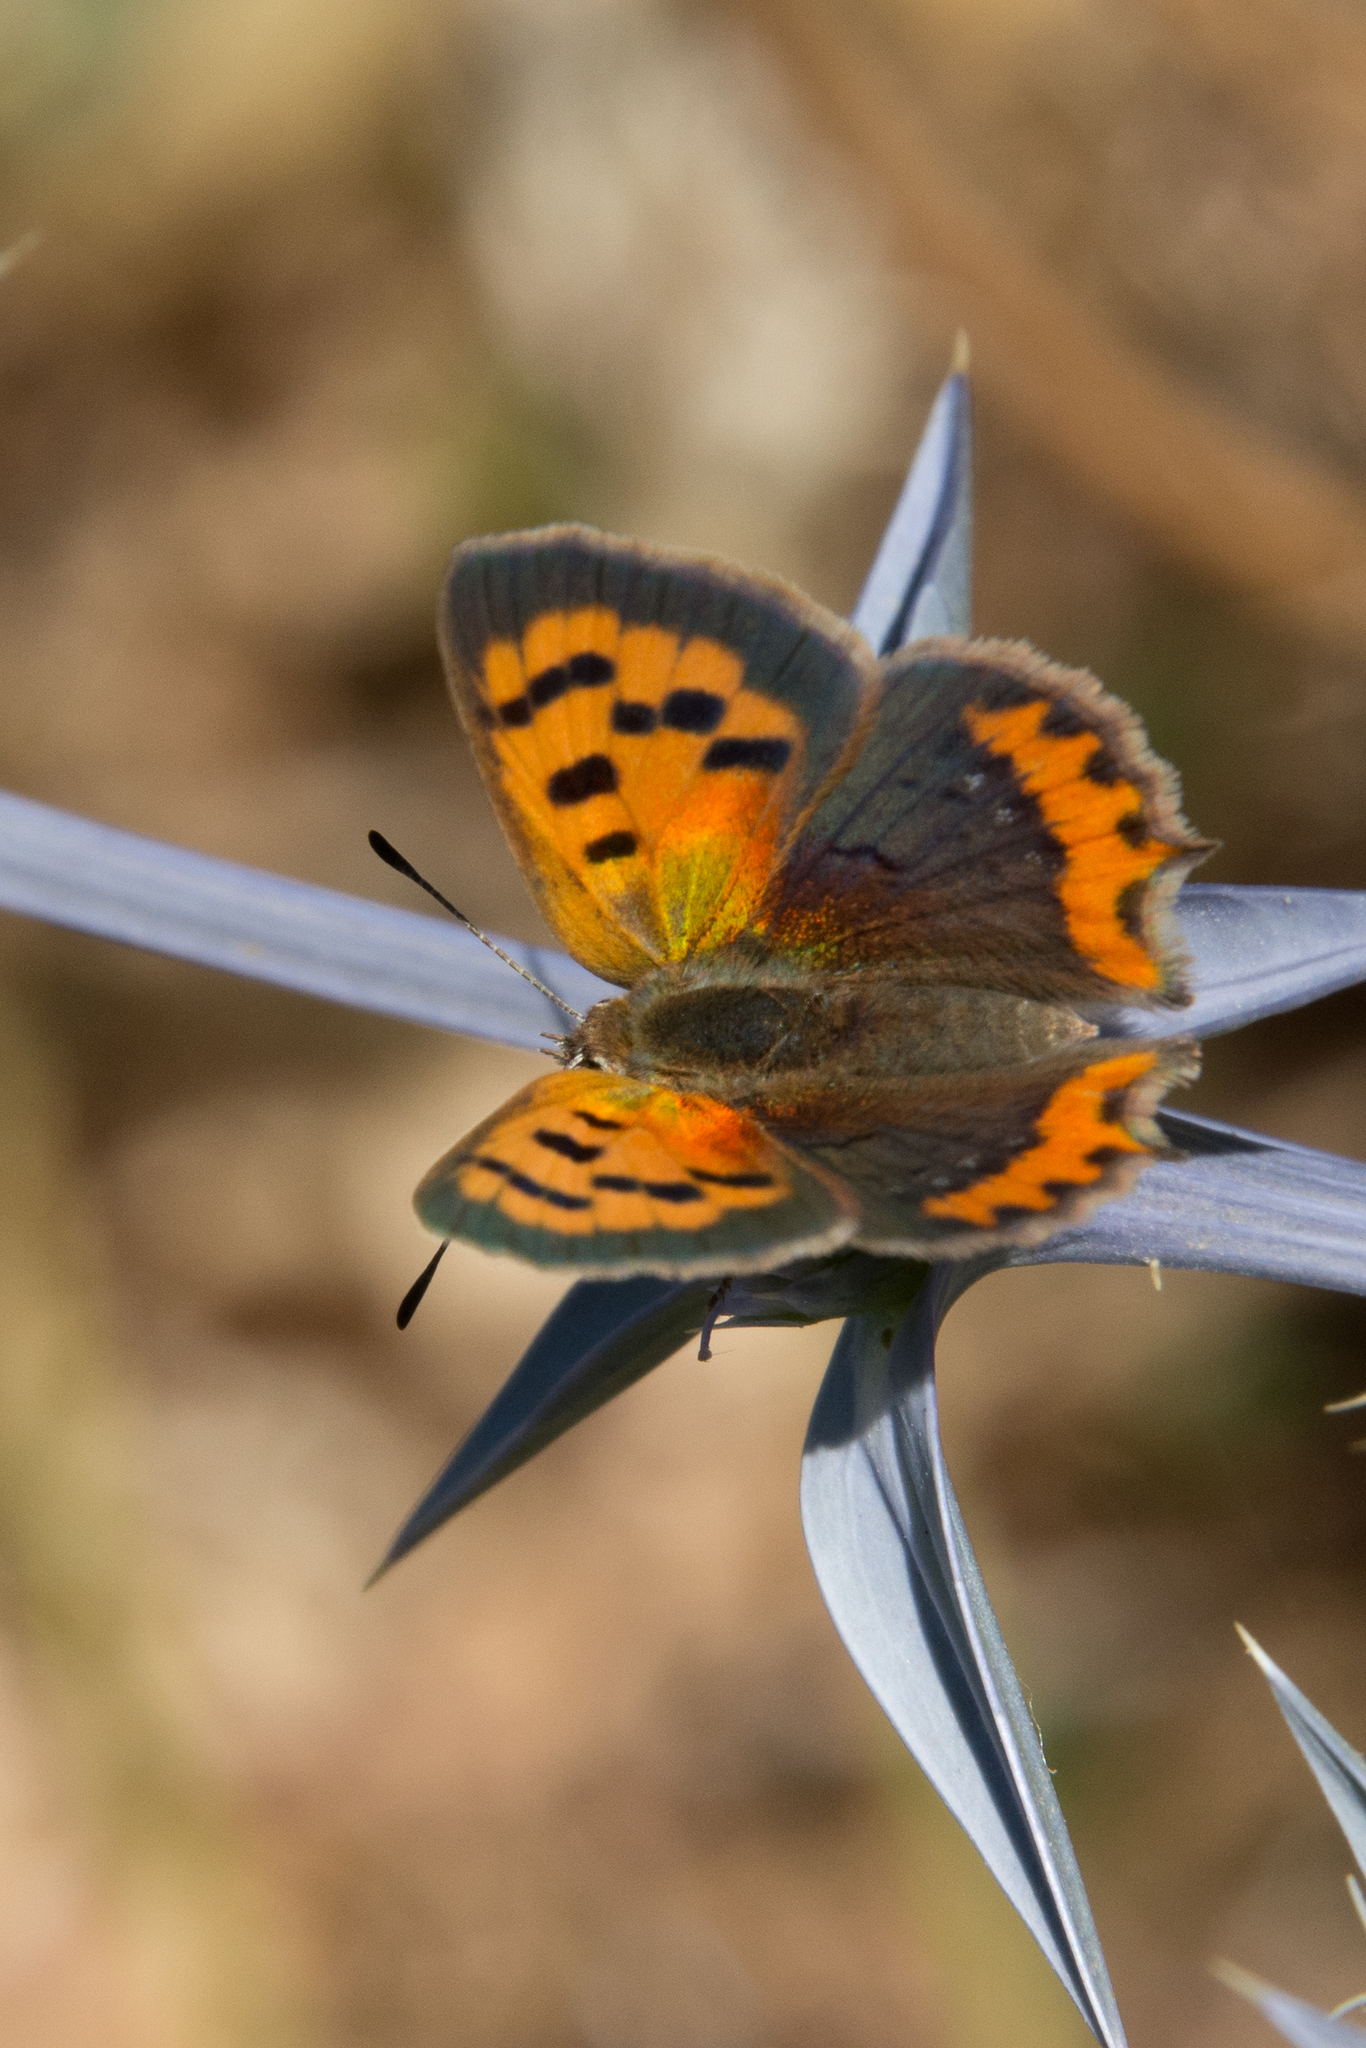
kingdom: Animalia
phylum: Arthropoda
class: Insecta
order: Lepidoptera
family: Lycaenidae
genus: Lycaena
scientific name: Lycaena phlaeas
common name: Small copper
